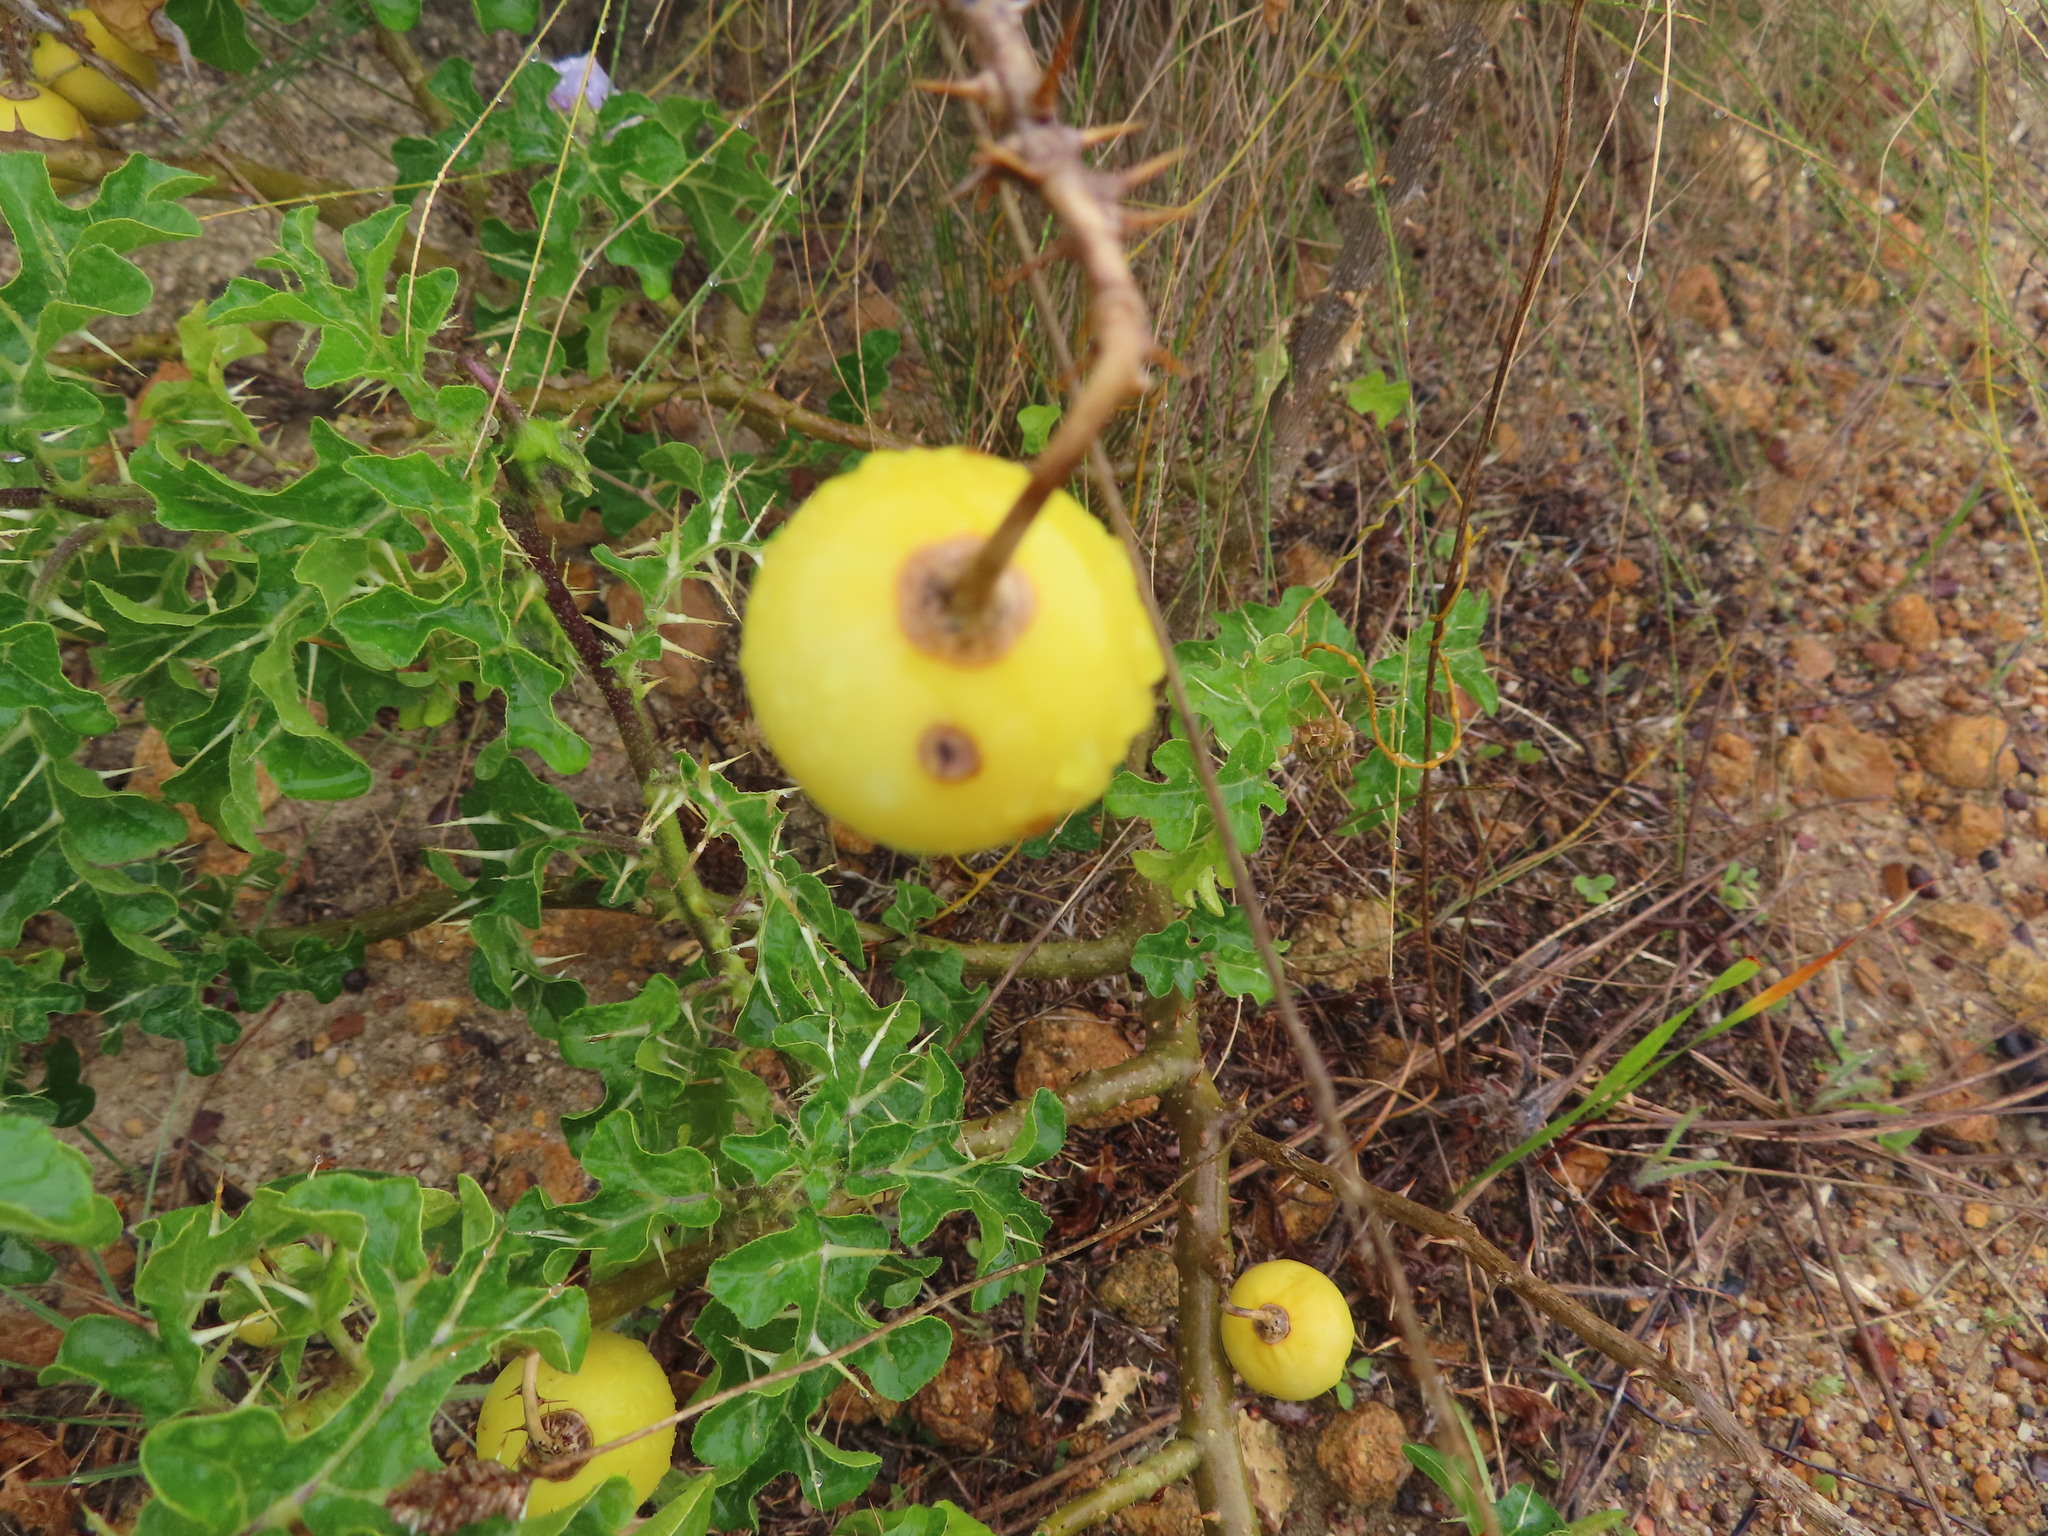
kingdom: Plantae
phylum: Tracheophyta
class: Magnoliopsida
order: Solanales
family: Solanaceae
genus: Solanum
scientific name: Solanum linnaeanum
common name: Nightshade
